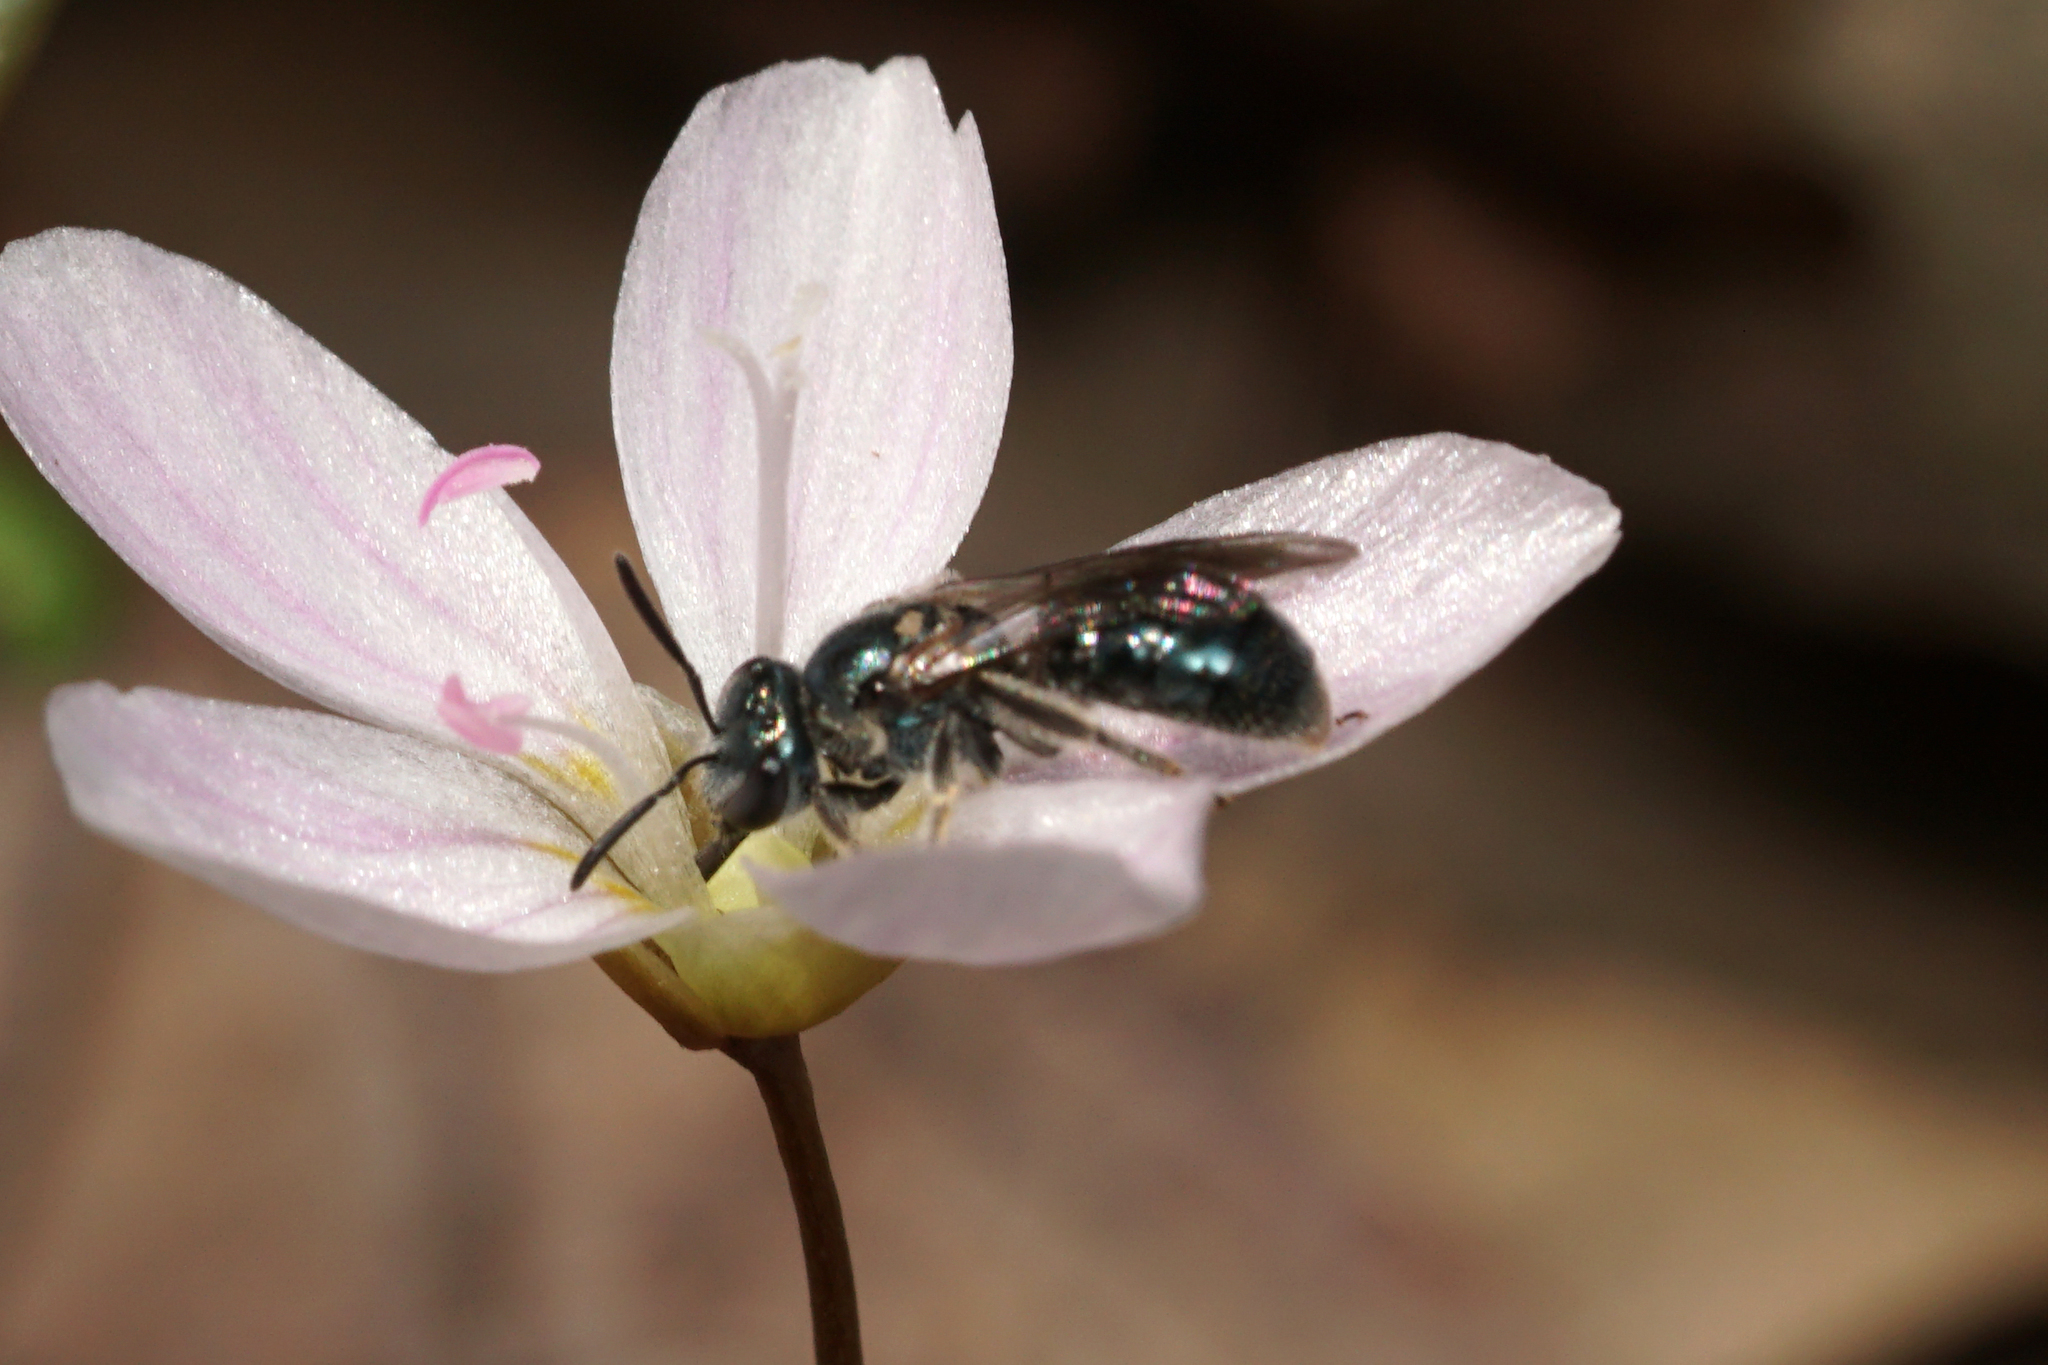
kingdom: Animalia
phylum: Arthropoda
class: Insecta
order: Hymenoptera
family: Halictidae
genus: Lasioglossum
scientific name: Lasioglossum coeruleum
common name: Deep-blue sweat bee
